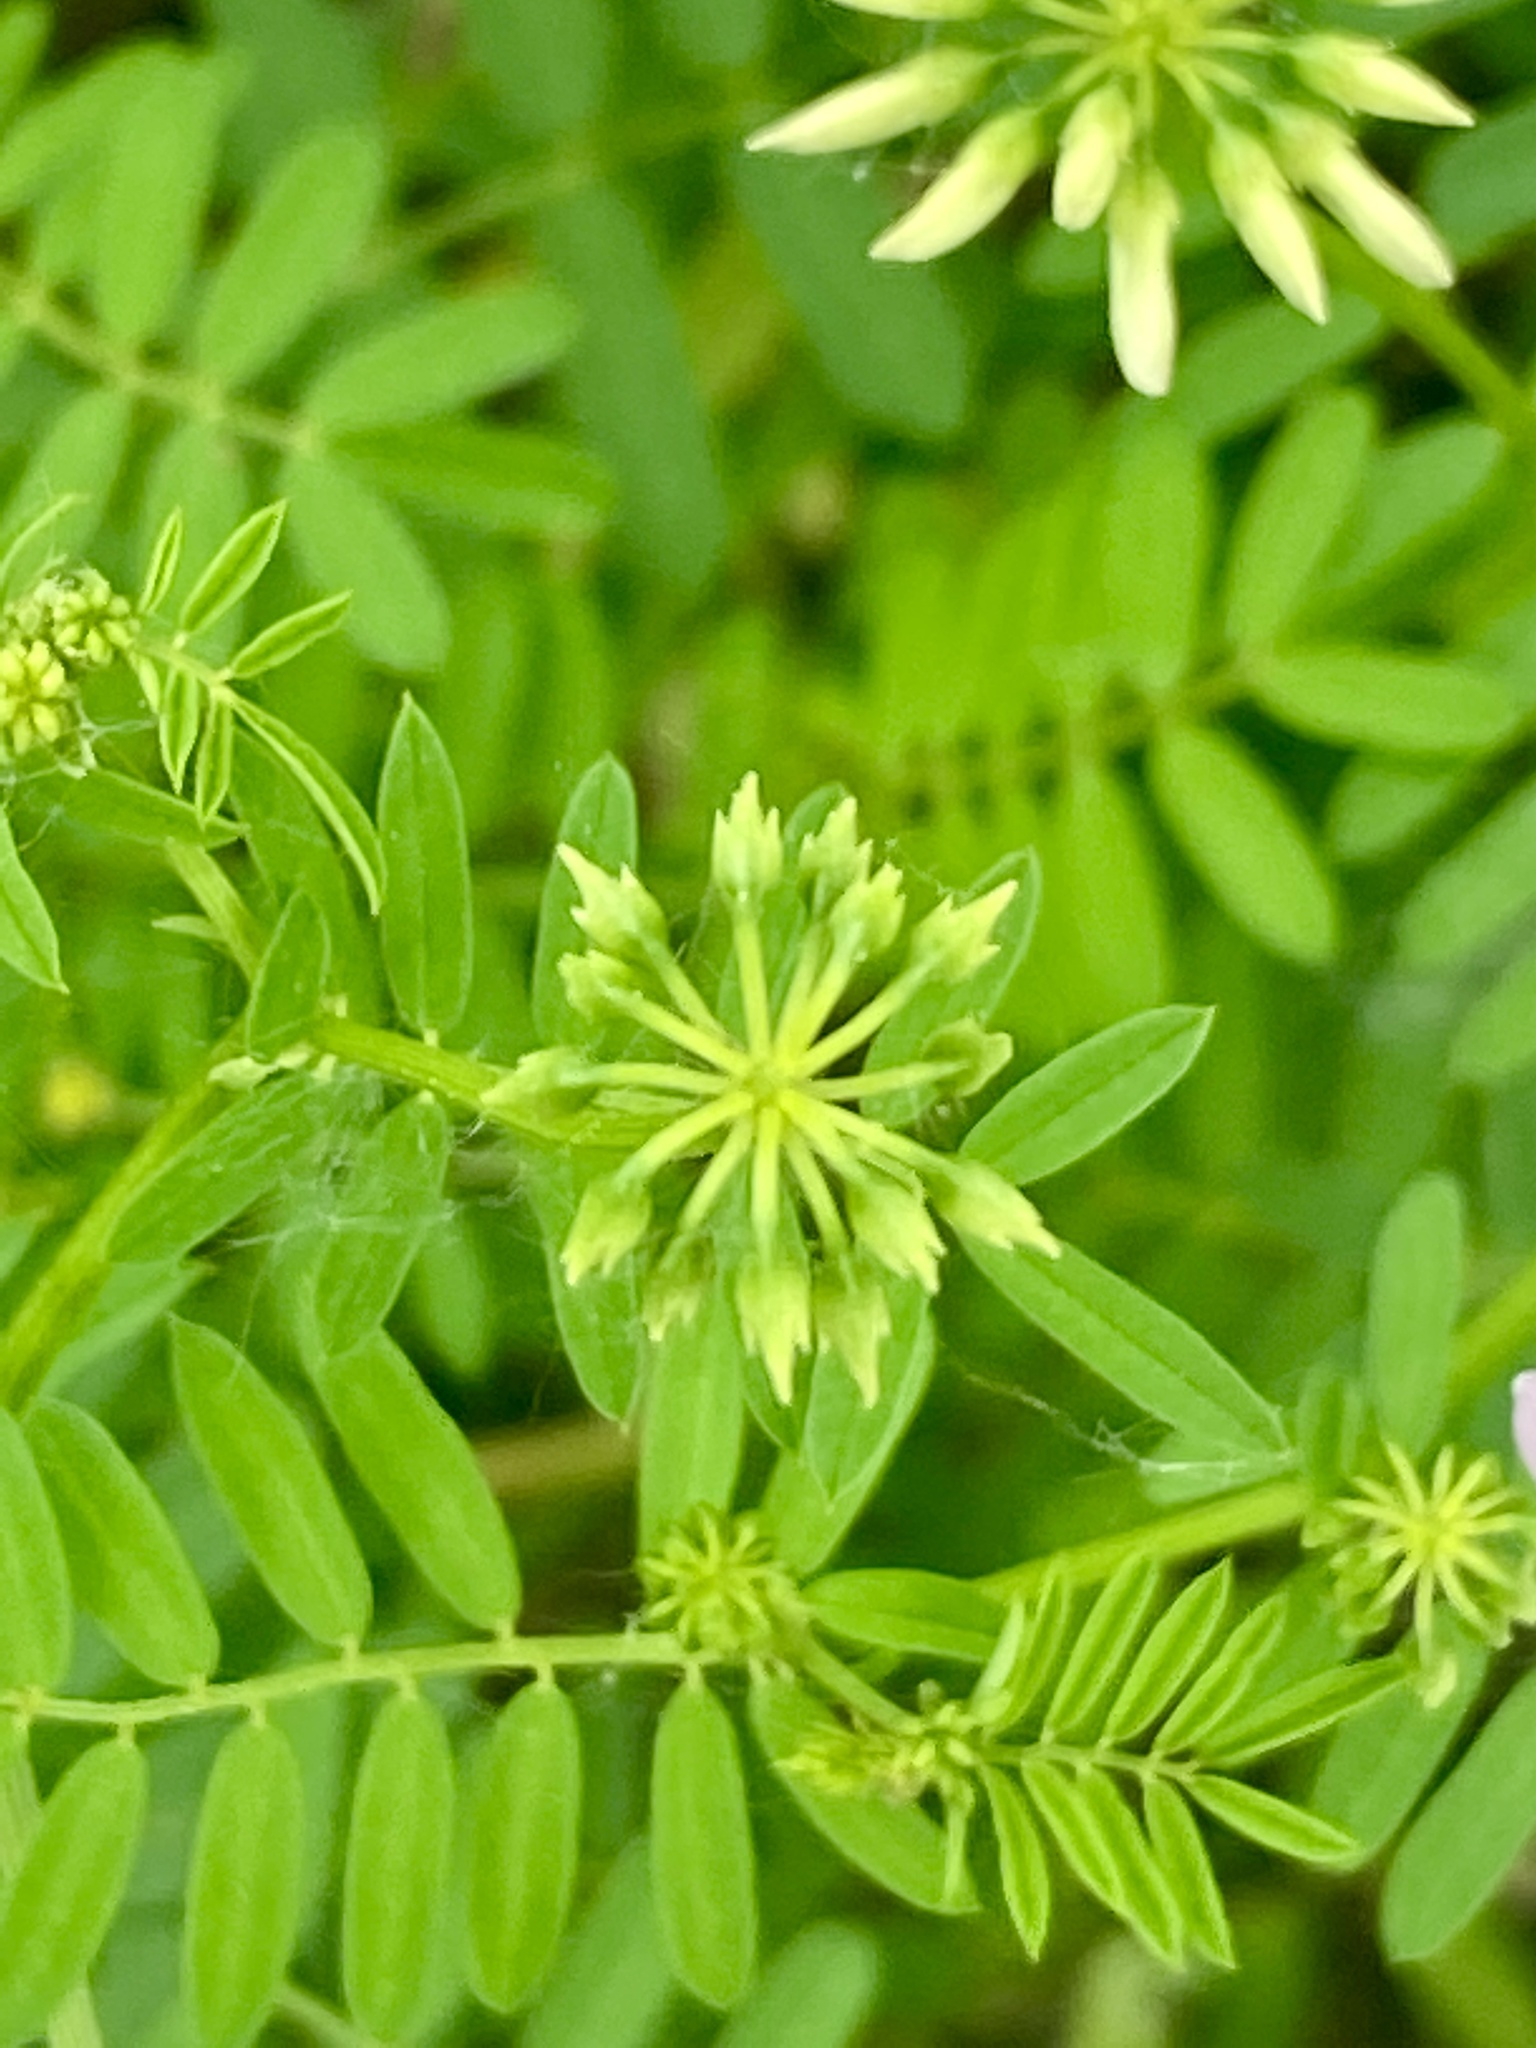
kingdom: Plantae
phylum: Tracheophyta
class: Magnoliopsida
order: Fabales
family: Fabaceae
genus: Coronilla
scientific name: Coronilla varia
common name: Crownvetch
